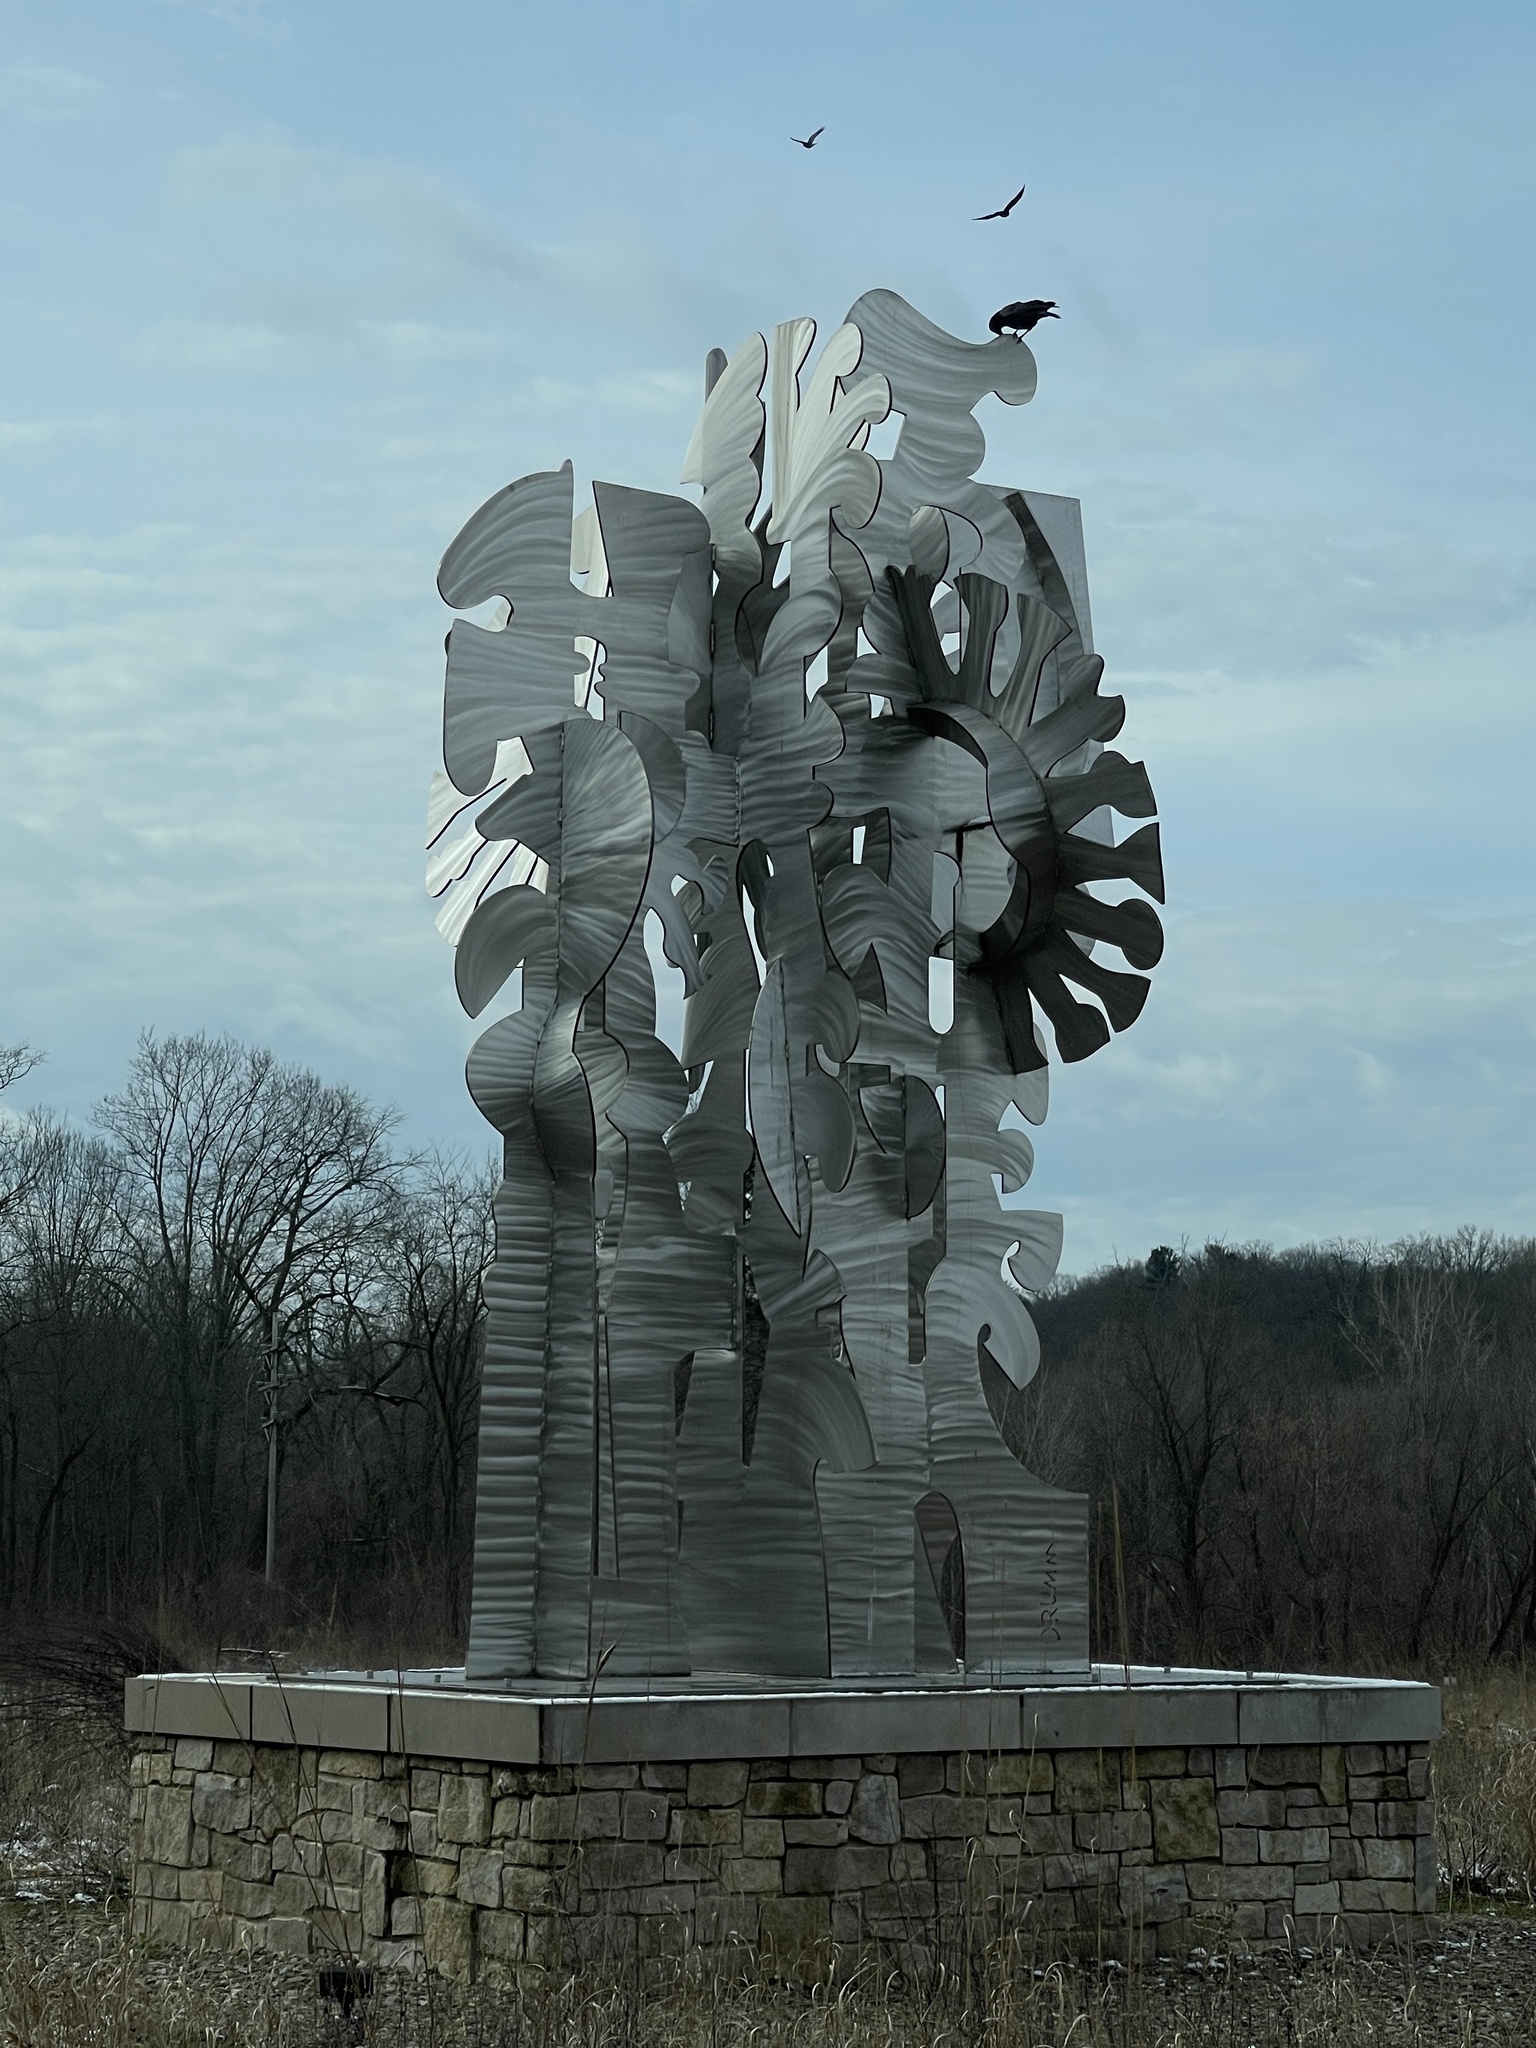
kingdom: Animalia
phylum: Chordata
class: Aves
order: Passeriformes
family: Corvidae
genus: Corvus
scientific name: Corvus brachyrhynchos
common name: American crow
